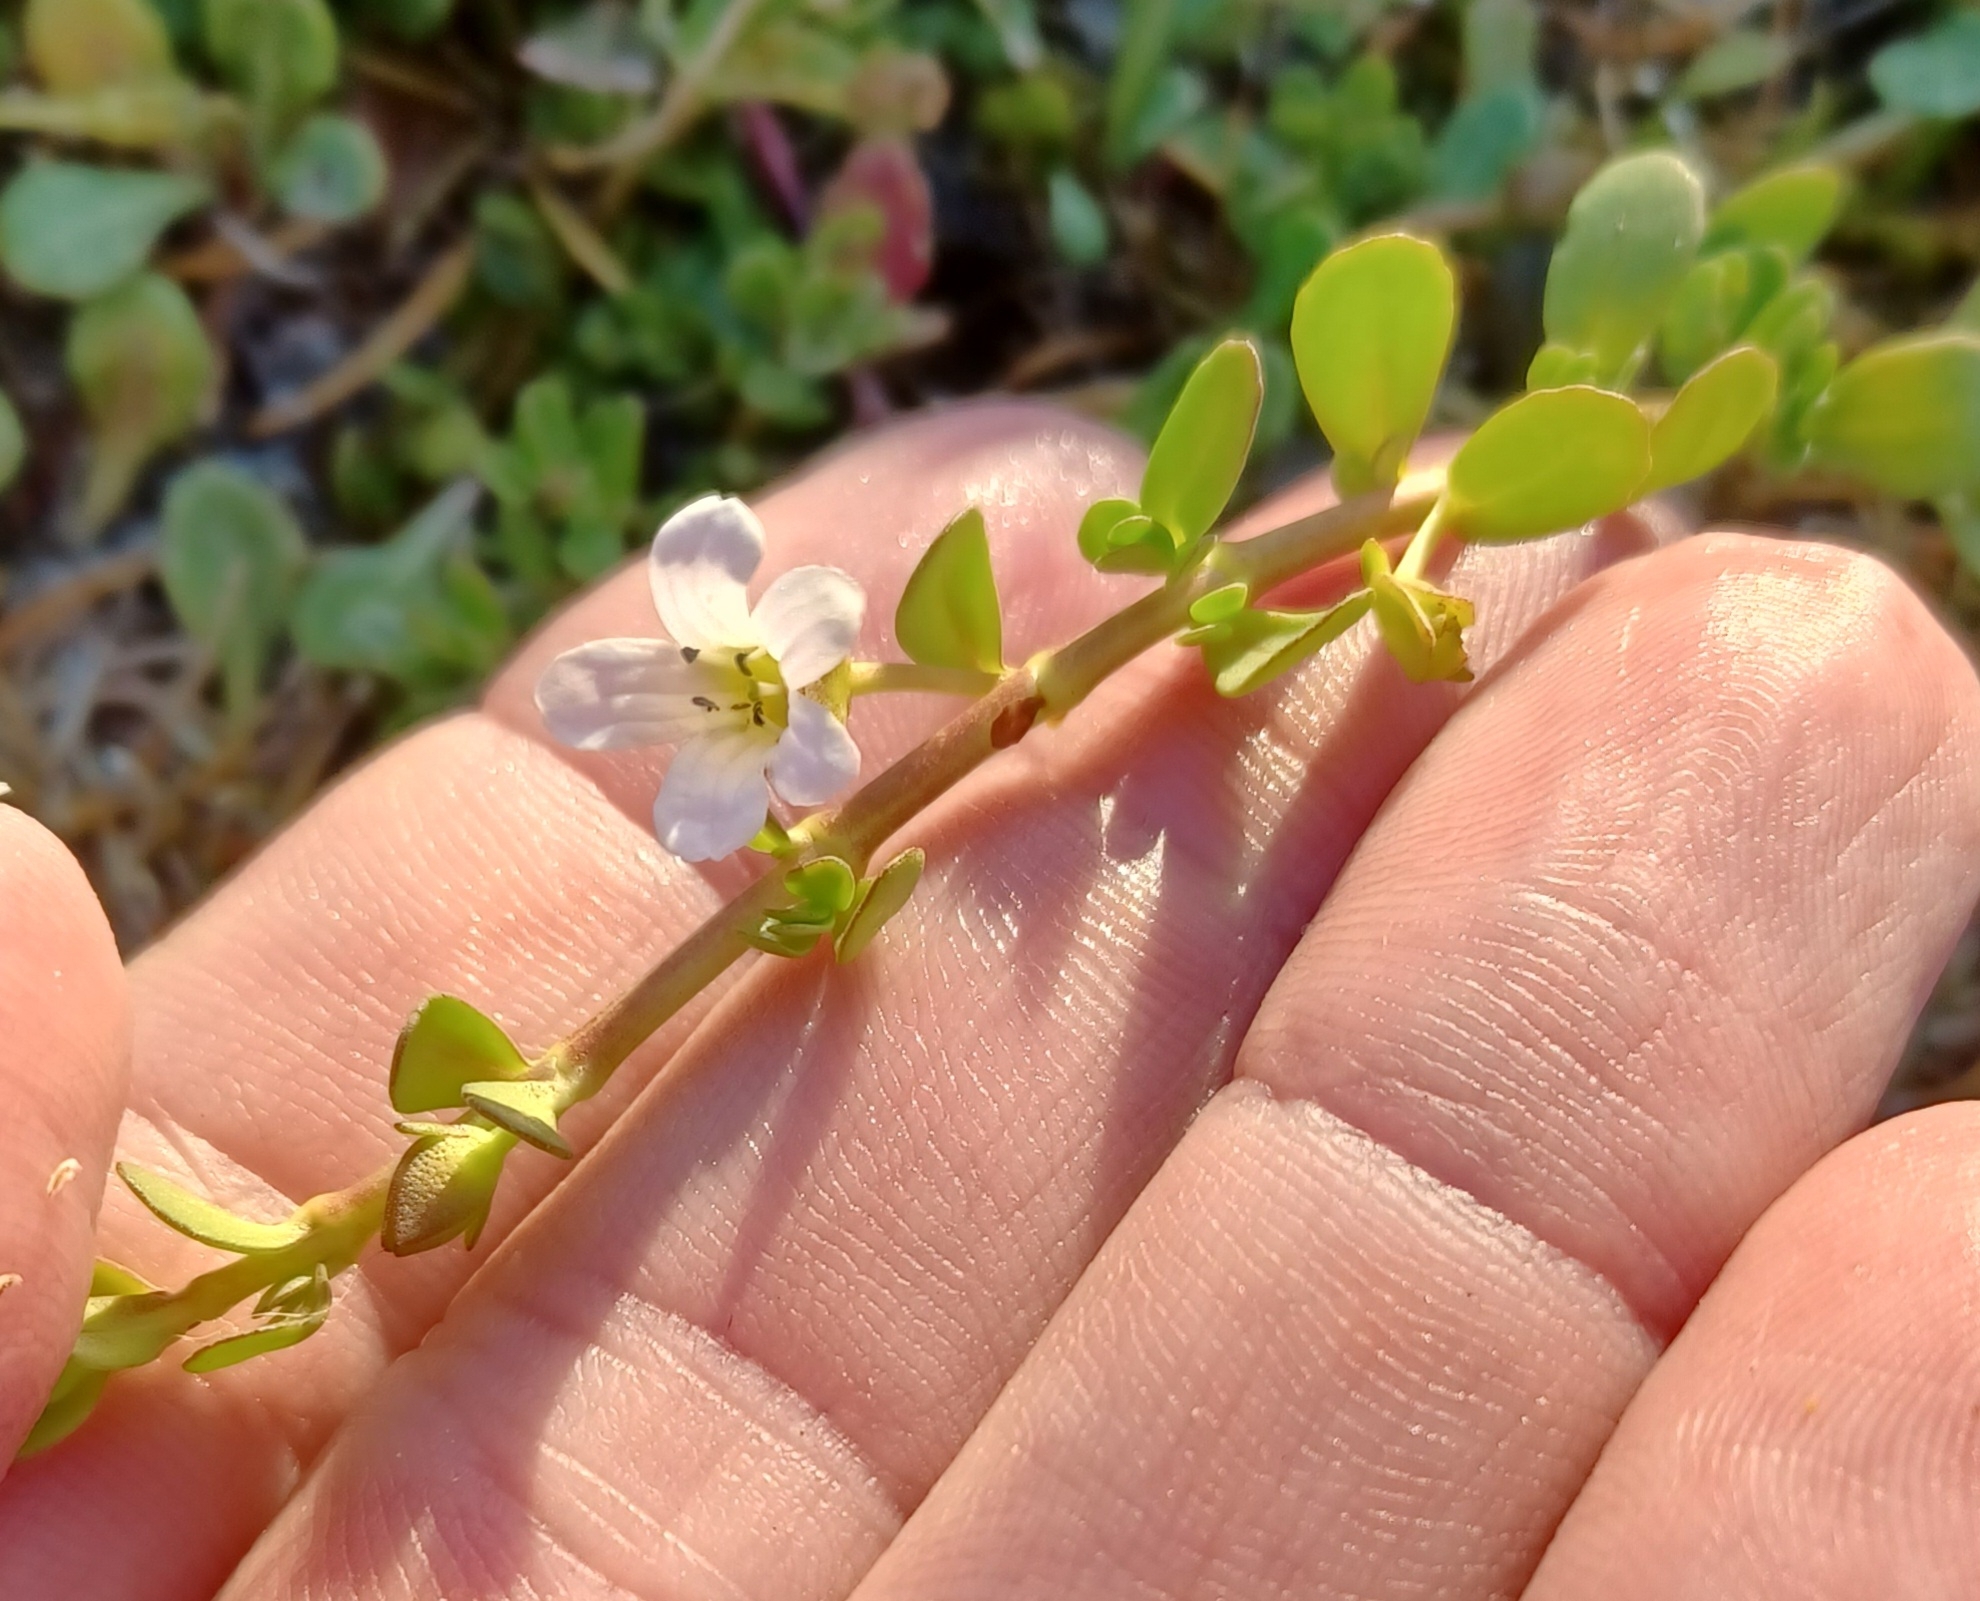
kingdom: Plantae
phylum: Tracheophyta
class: Magnoliopsida
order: Lamiales
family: Plantaginaceae
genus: Bacopa
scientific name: Bacopa monnieri
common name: Indian-pennywort
